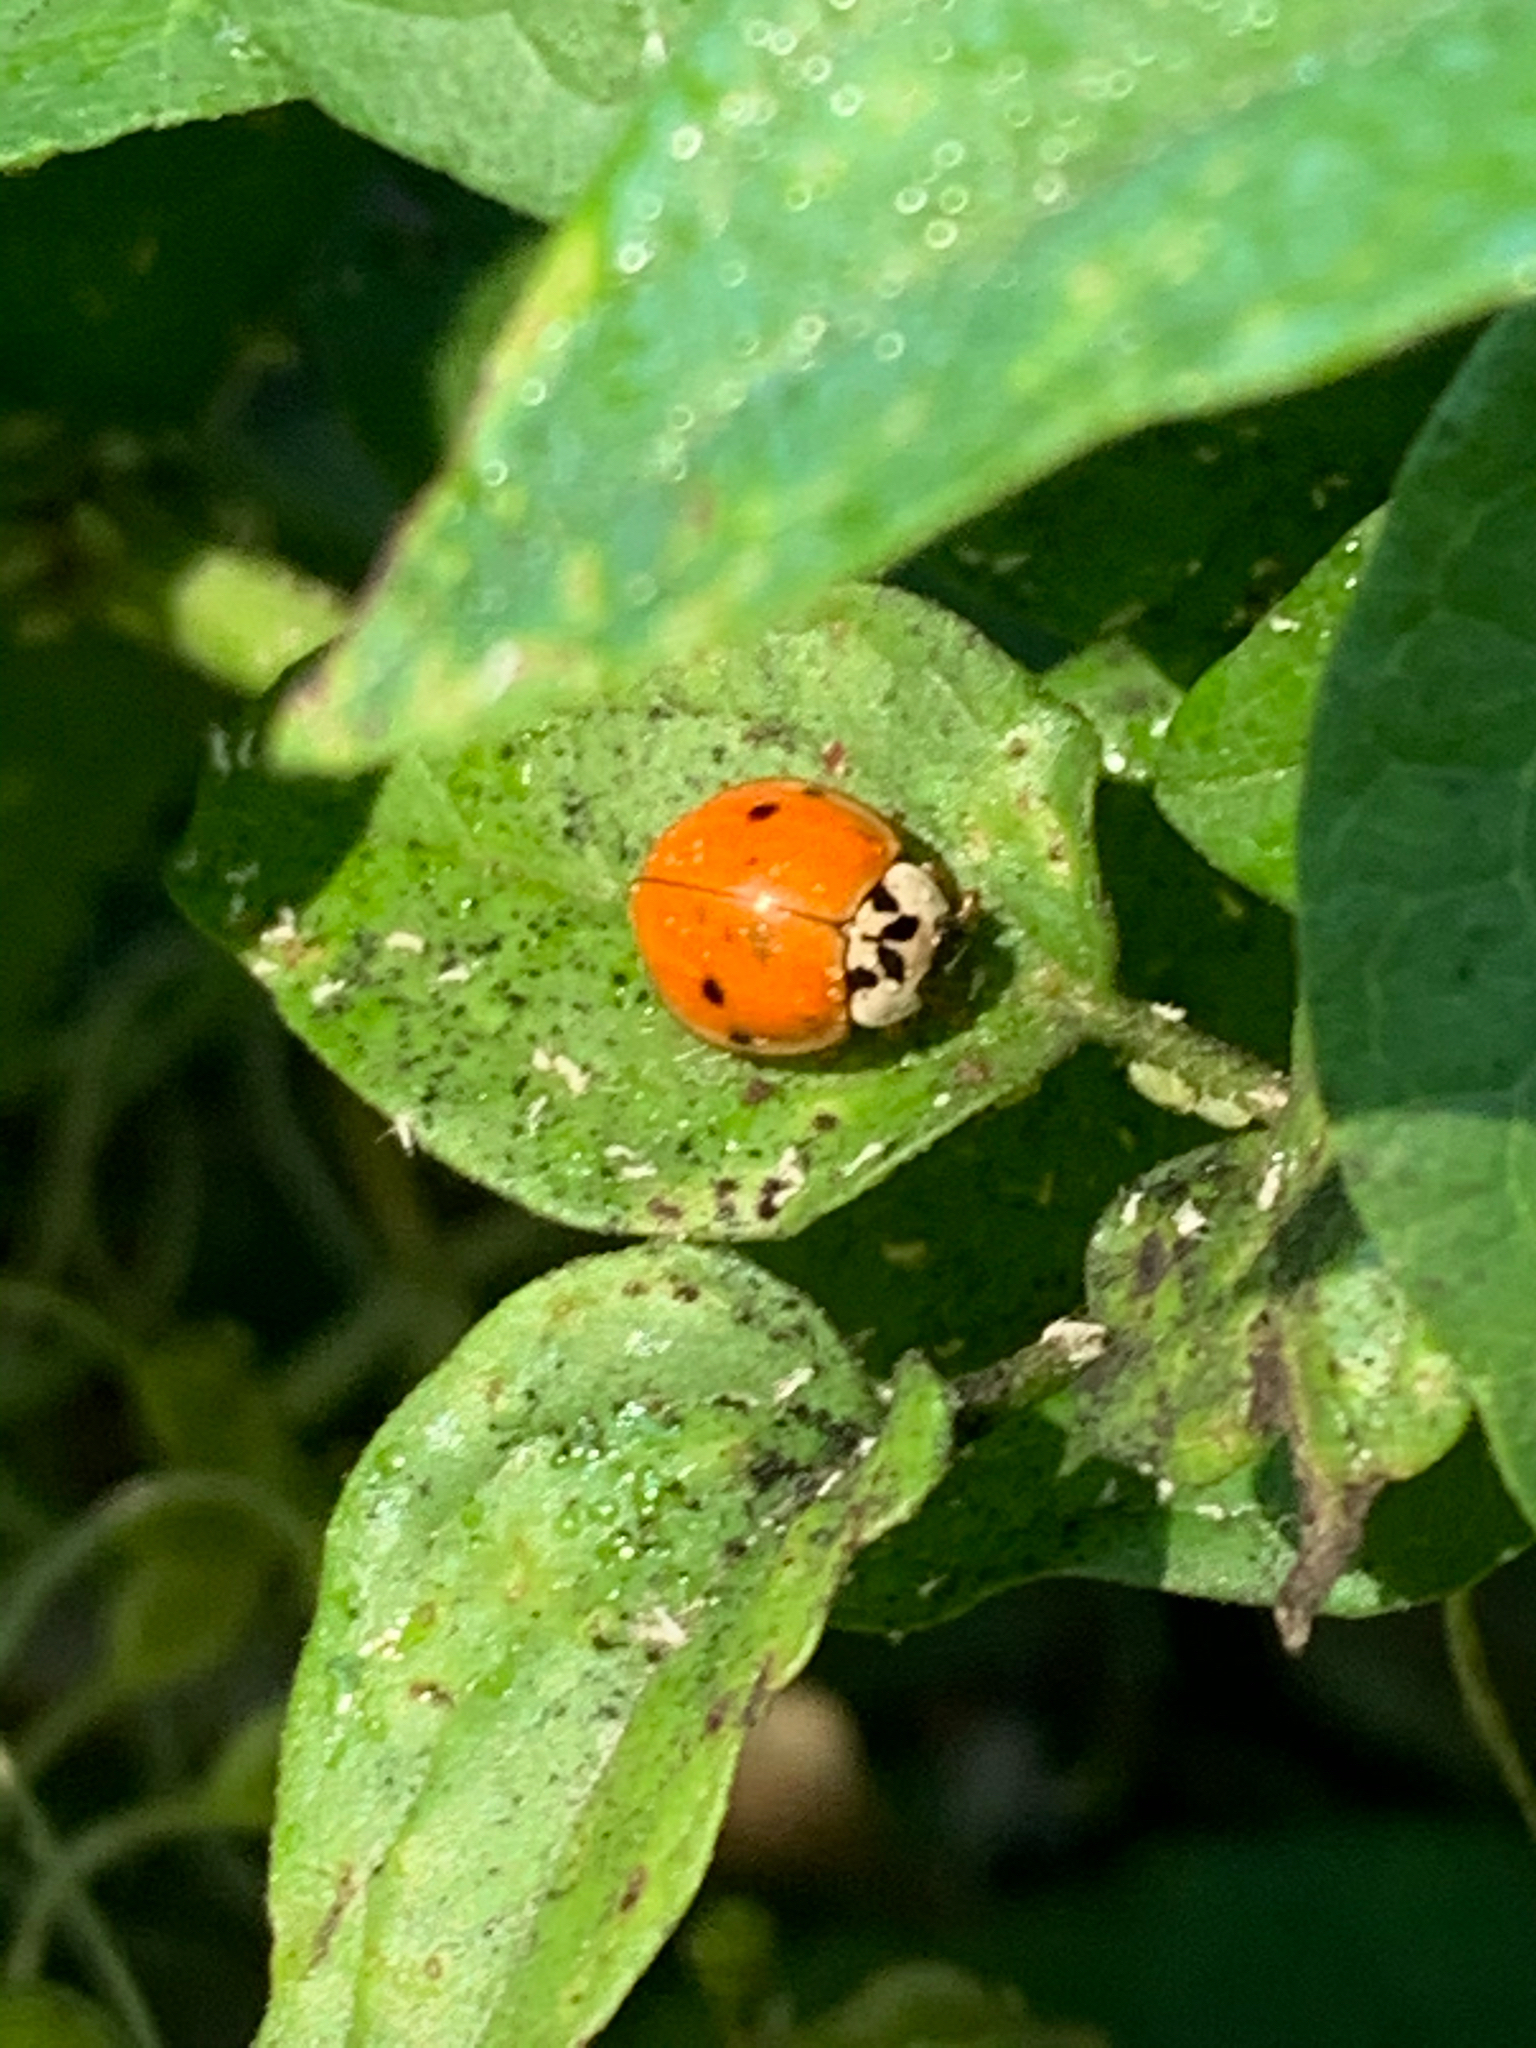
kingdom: Animalia
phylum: Arthropoda
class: Insecta
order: Coleoptera
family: Coccinellidae
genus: Harmonia
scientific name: Harmonia axyridis
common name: Harlequin ladybird
